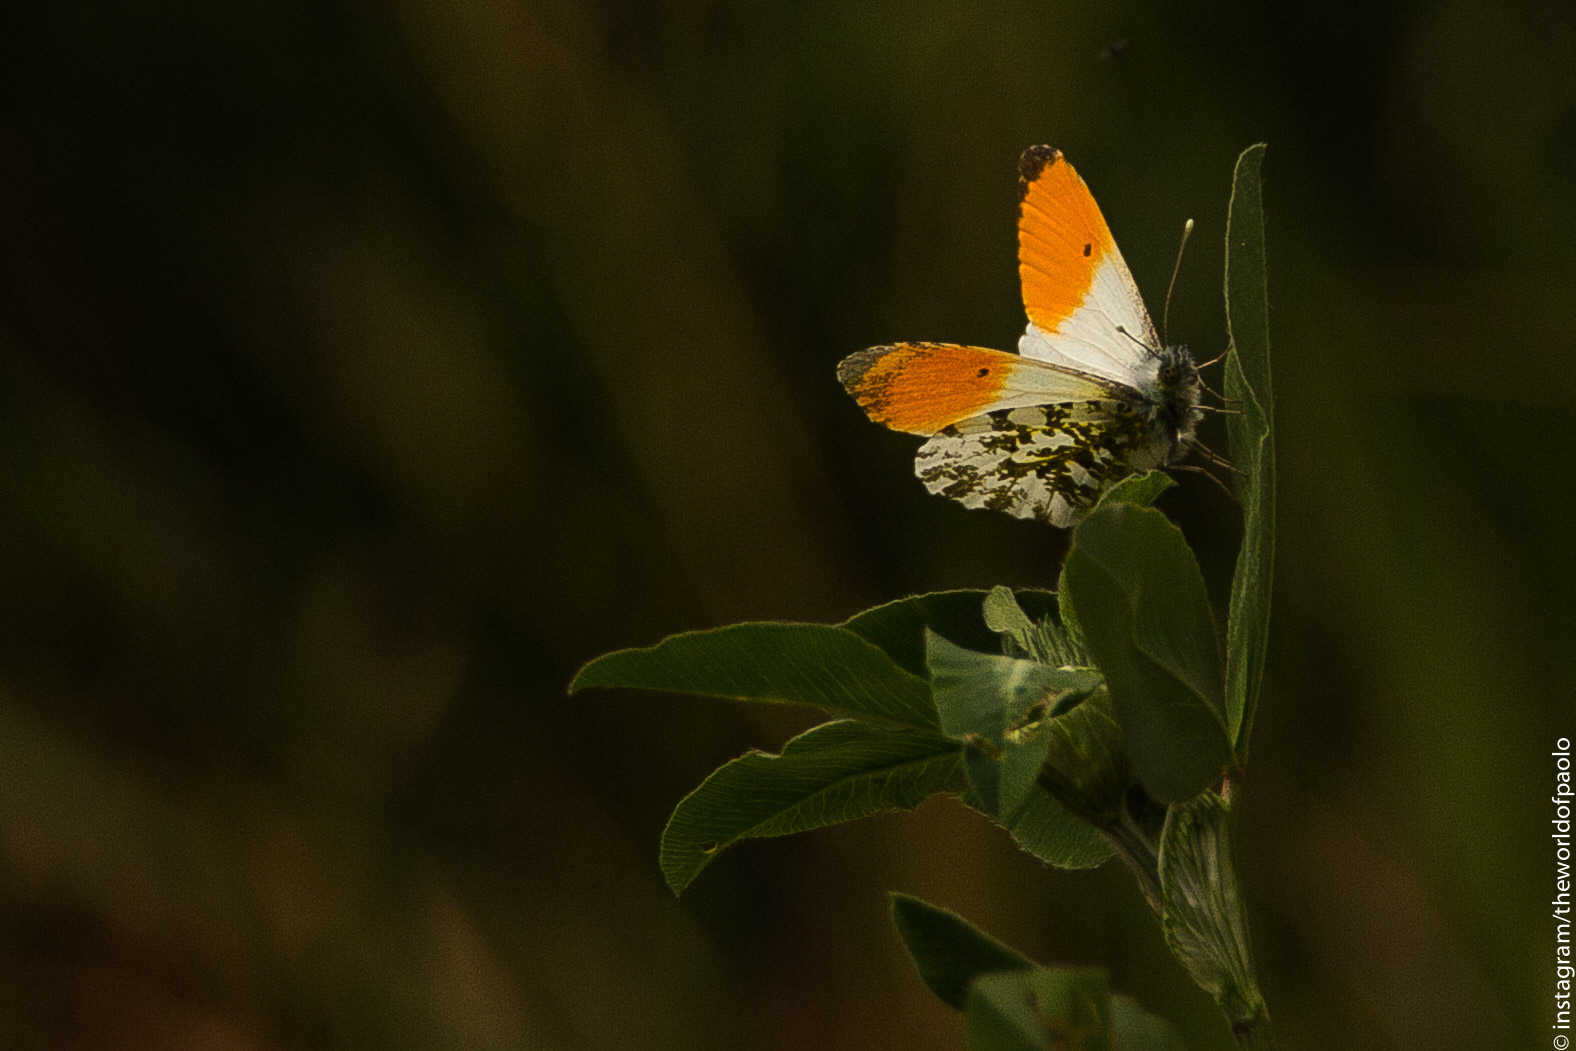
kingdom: Animalia
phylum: Arthropoda
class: Insecta
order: Lepidoptera
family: Pieridae
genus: Anthocharis
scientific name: Anthocharis cardamines
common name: Orange-tip
